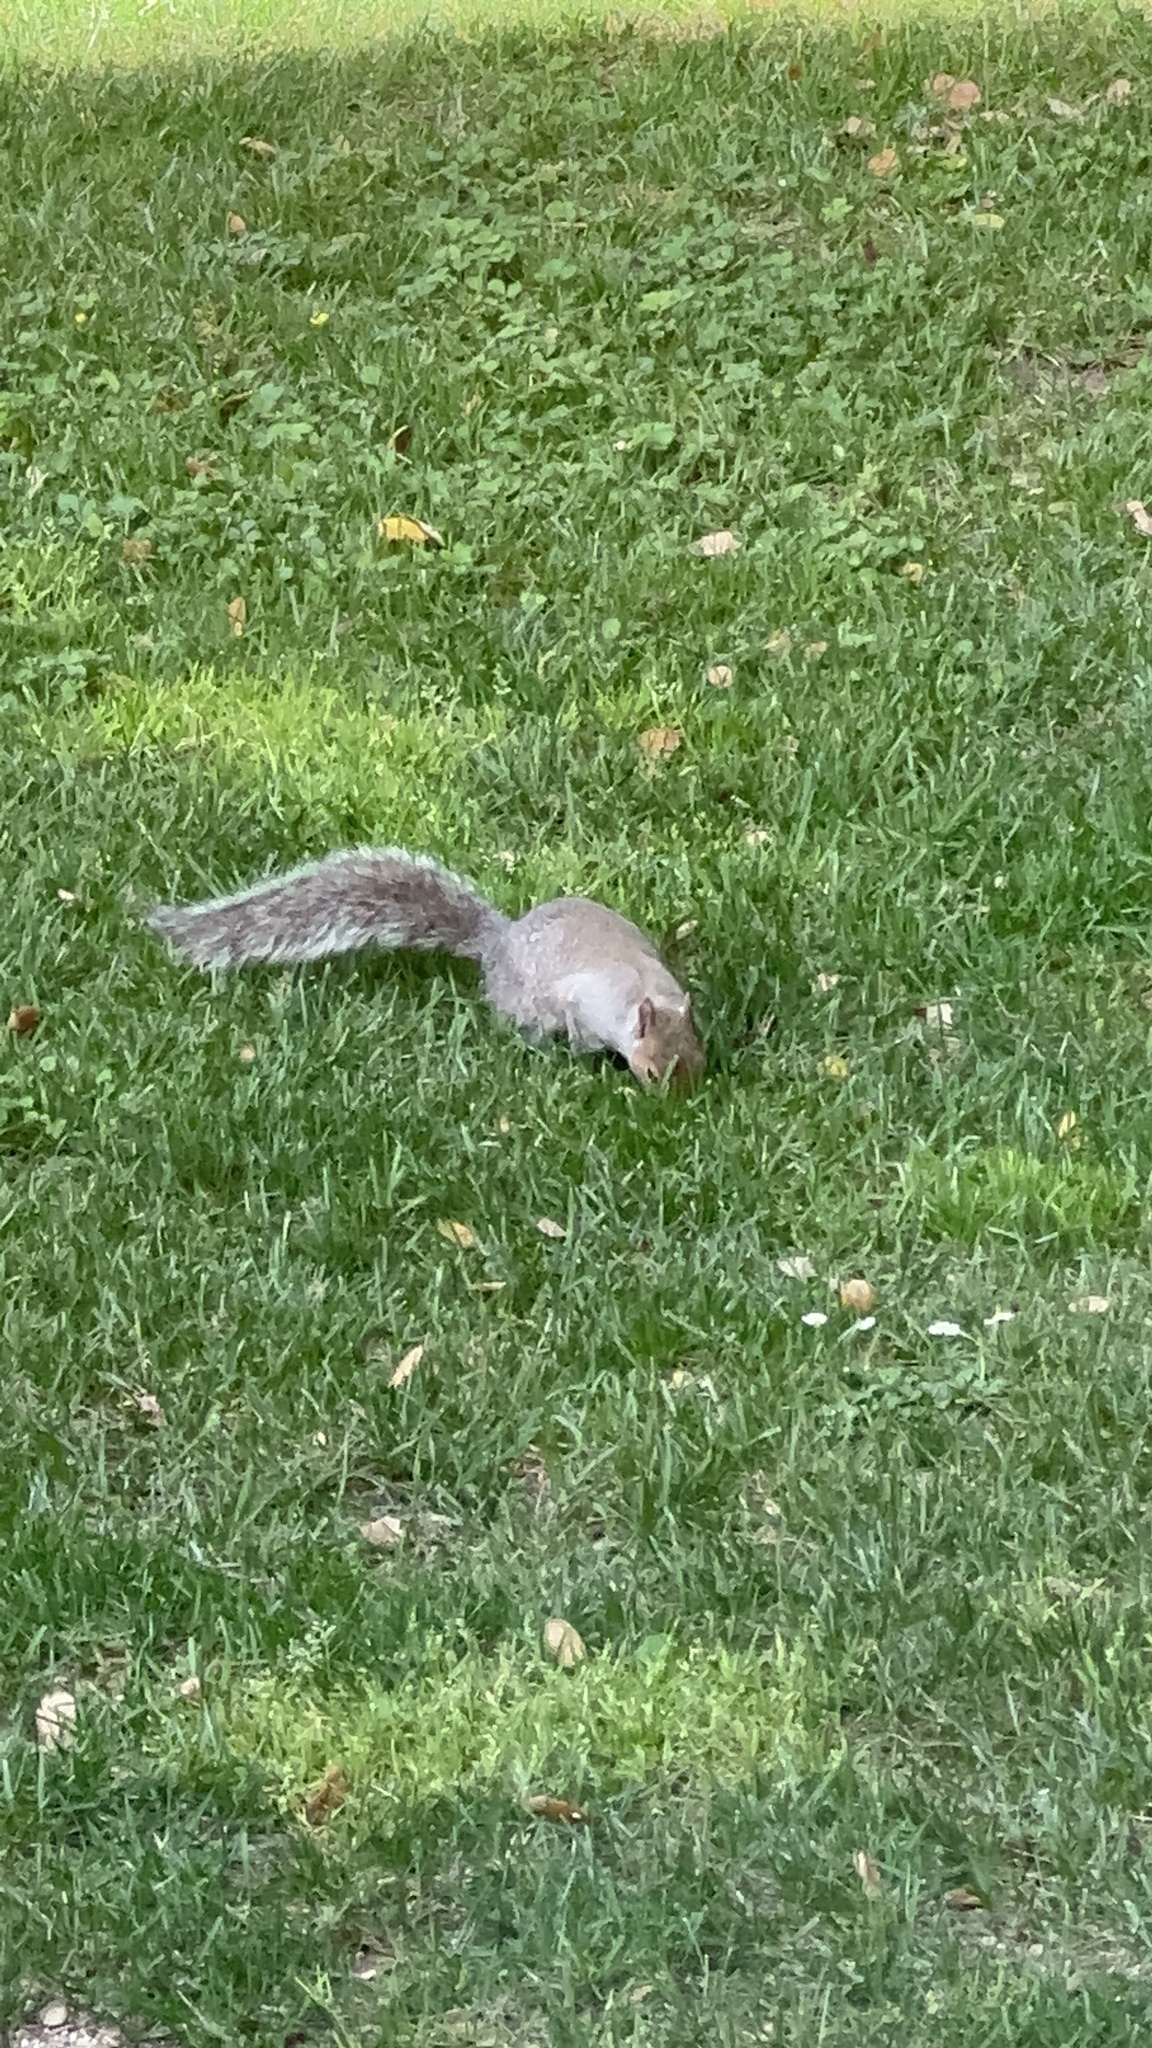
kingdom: Animalia
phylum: Chordata
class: Mammalia
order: Rodentia
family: Sciuridae
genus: Sciurus
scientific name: Sciurus carolinensis
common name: Eastern gray squirrel
